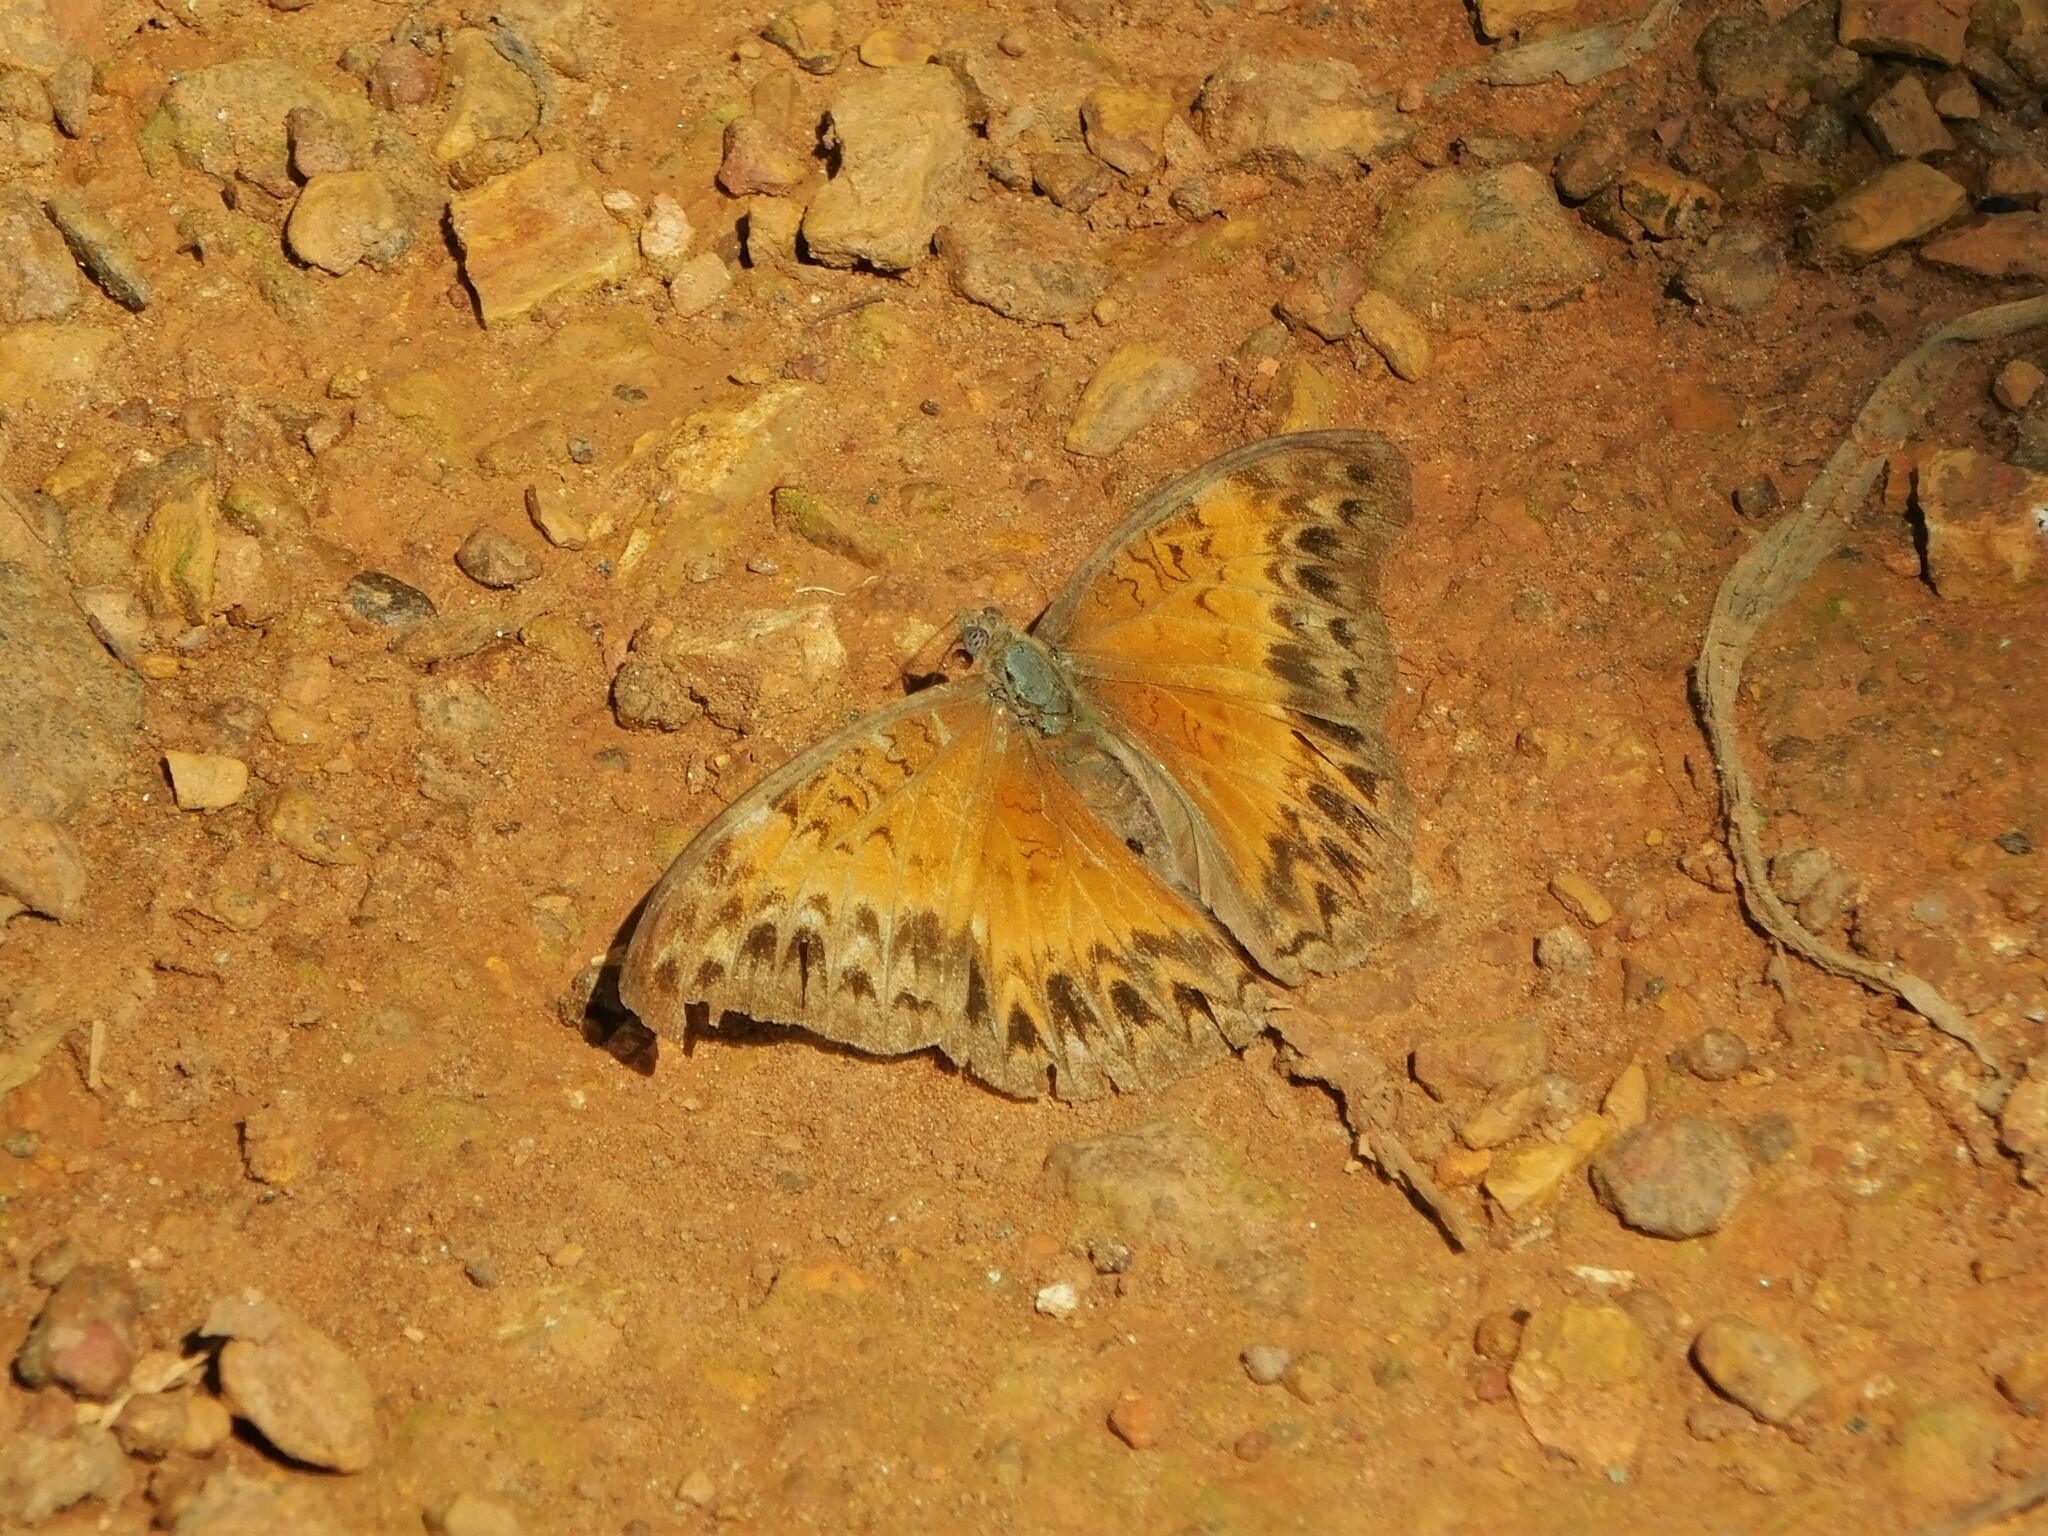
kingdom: Animalia
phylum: Arthropoda
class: Insecta
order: Lepidoptera
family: Nymphalidae
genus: Cymothoe
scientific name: Cymothoe caenis
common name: Common glider
